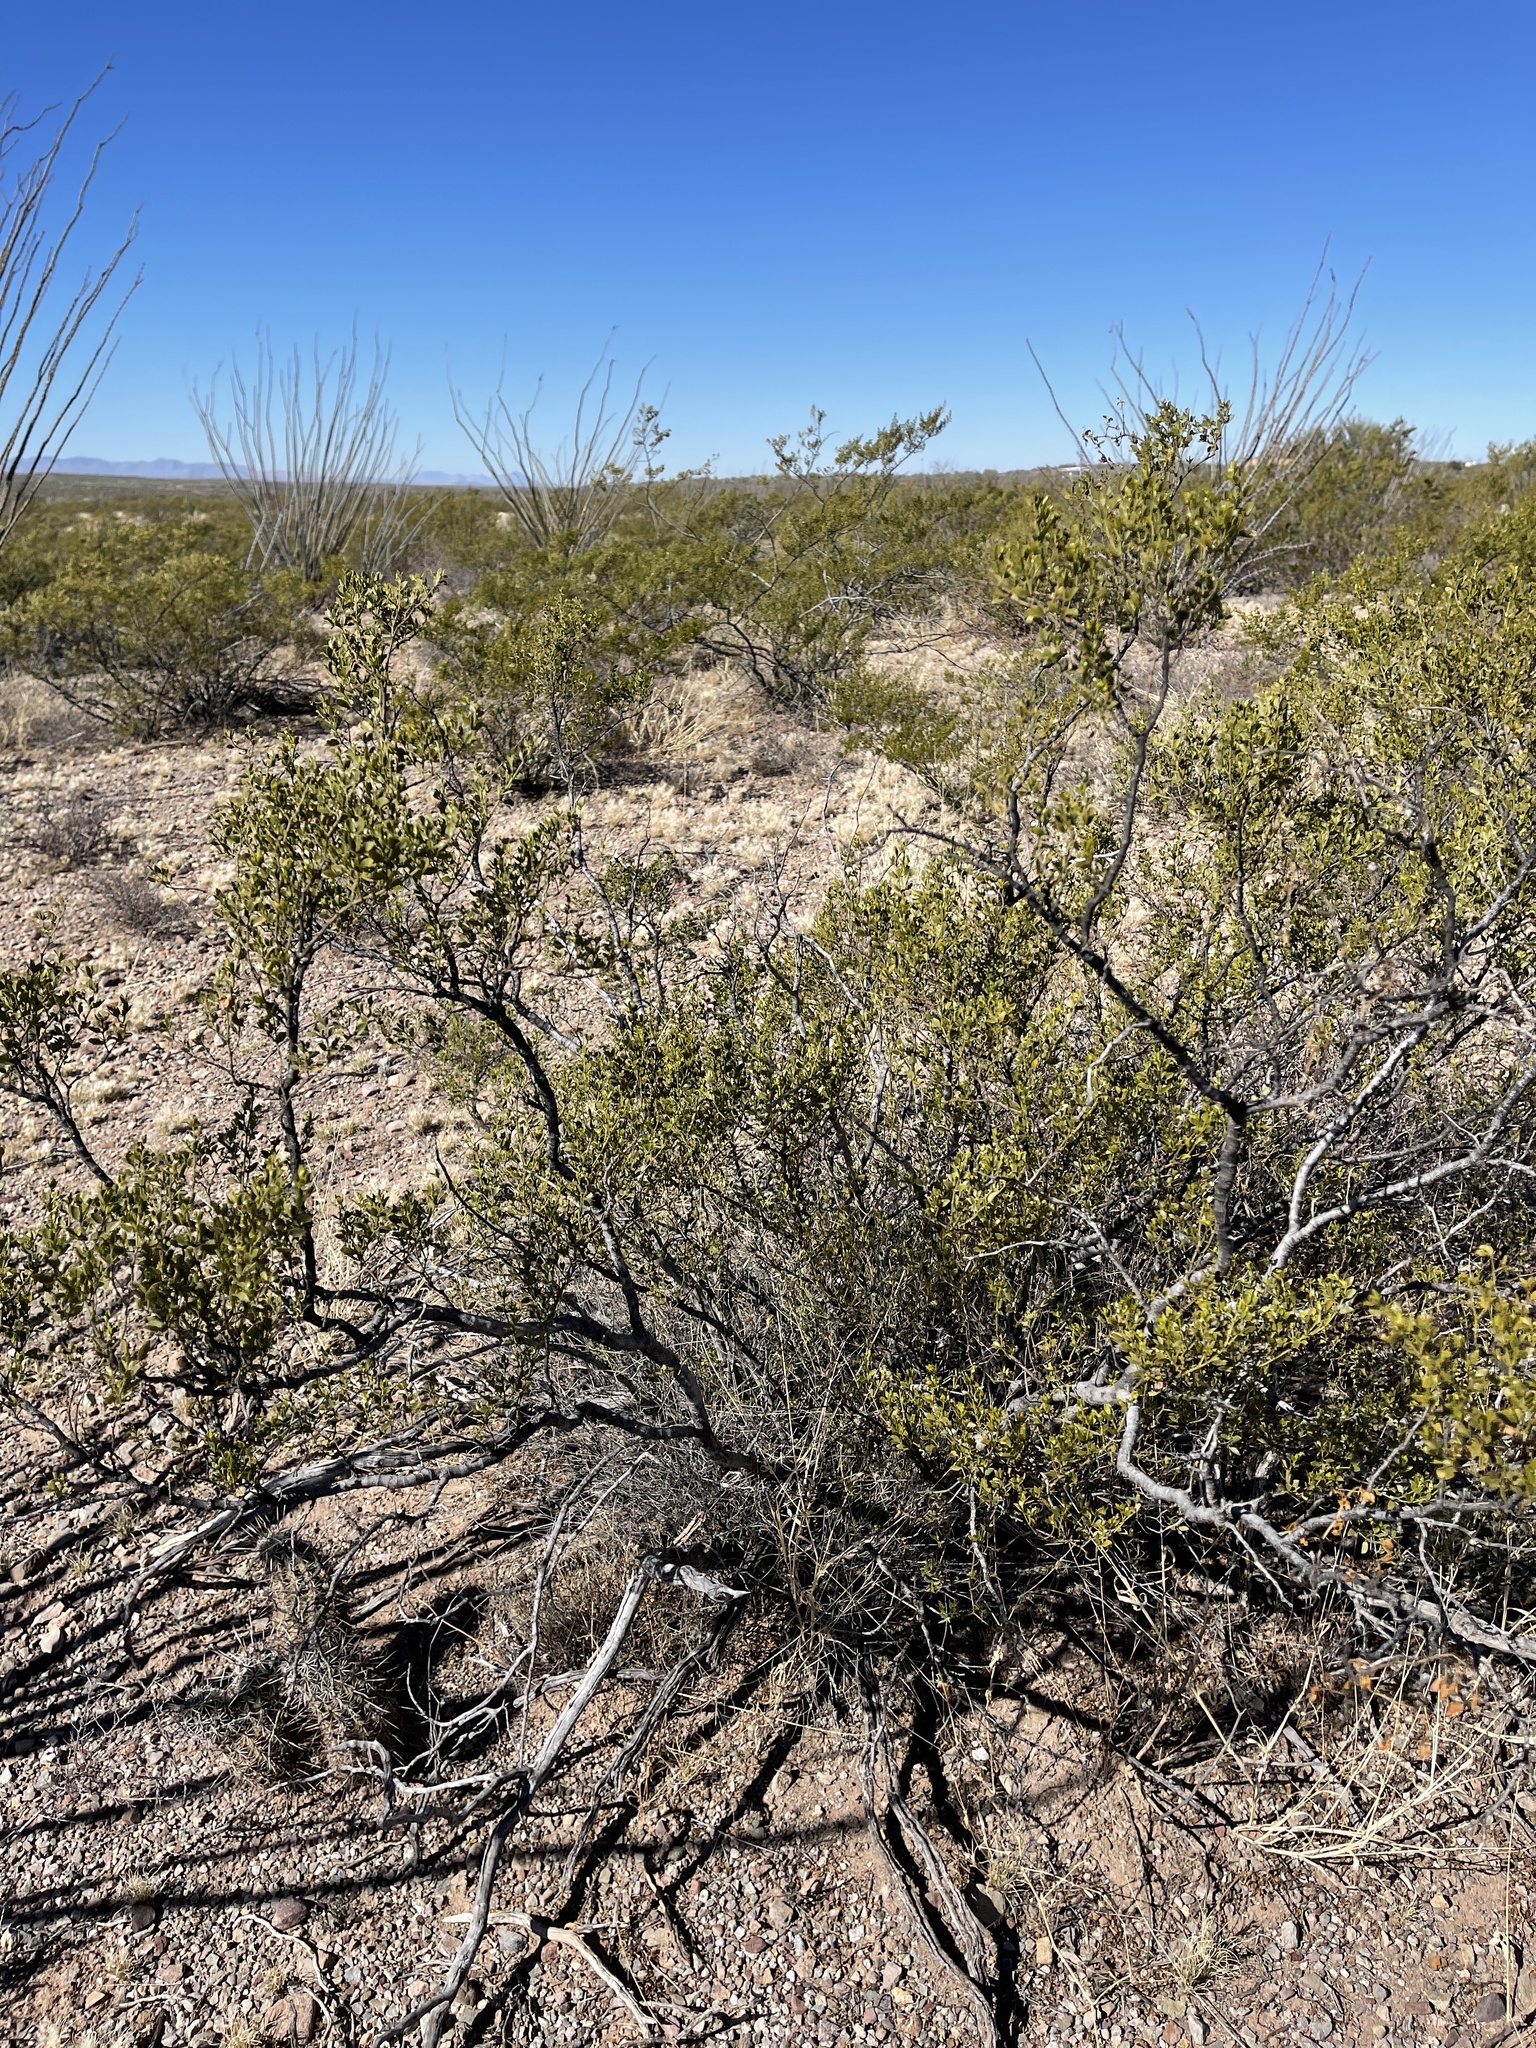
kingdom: Plantae
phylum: Tracheophyta
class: Magnoliopsida
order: Zygophyllales
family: Zygophyllaceae
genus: Larrea
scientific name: Larrea tridentata
